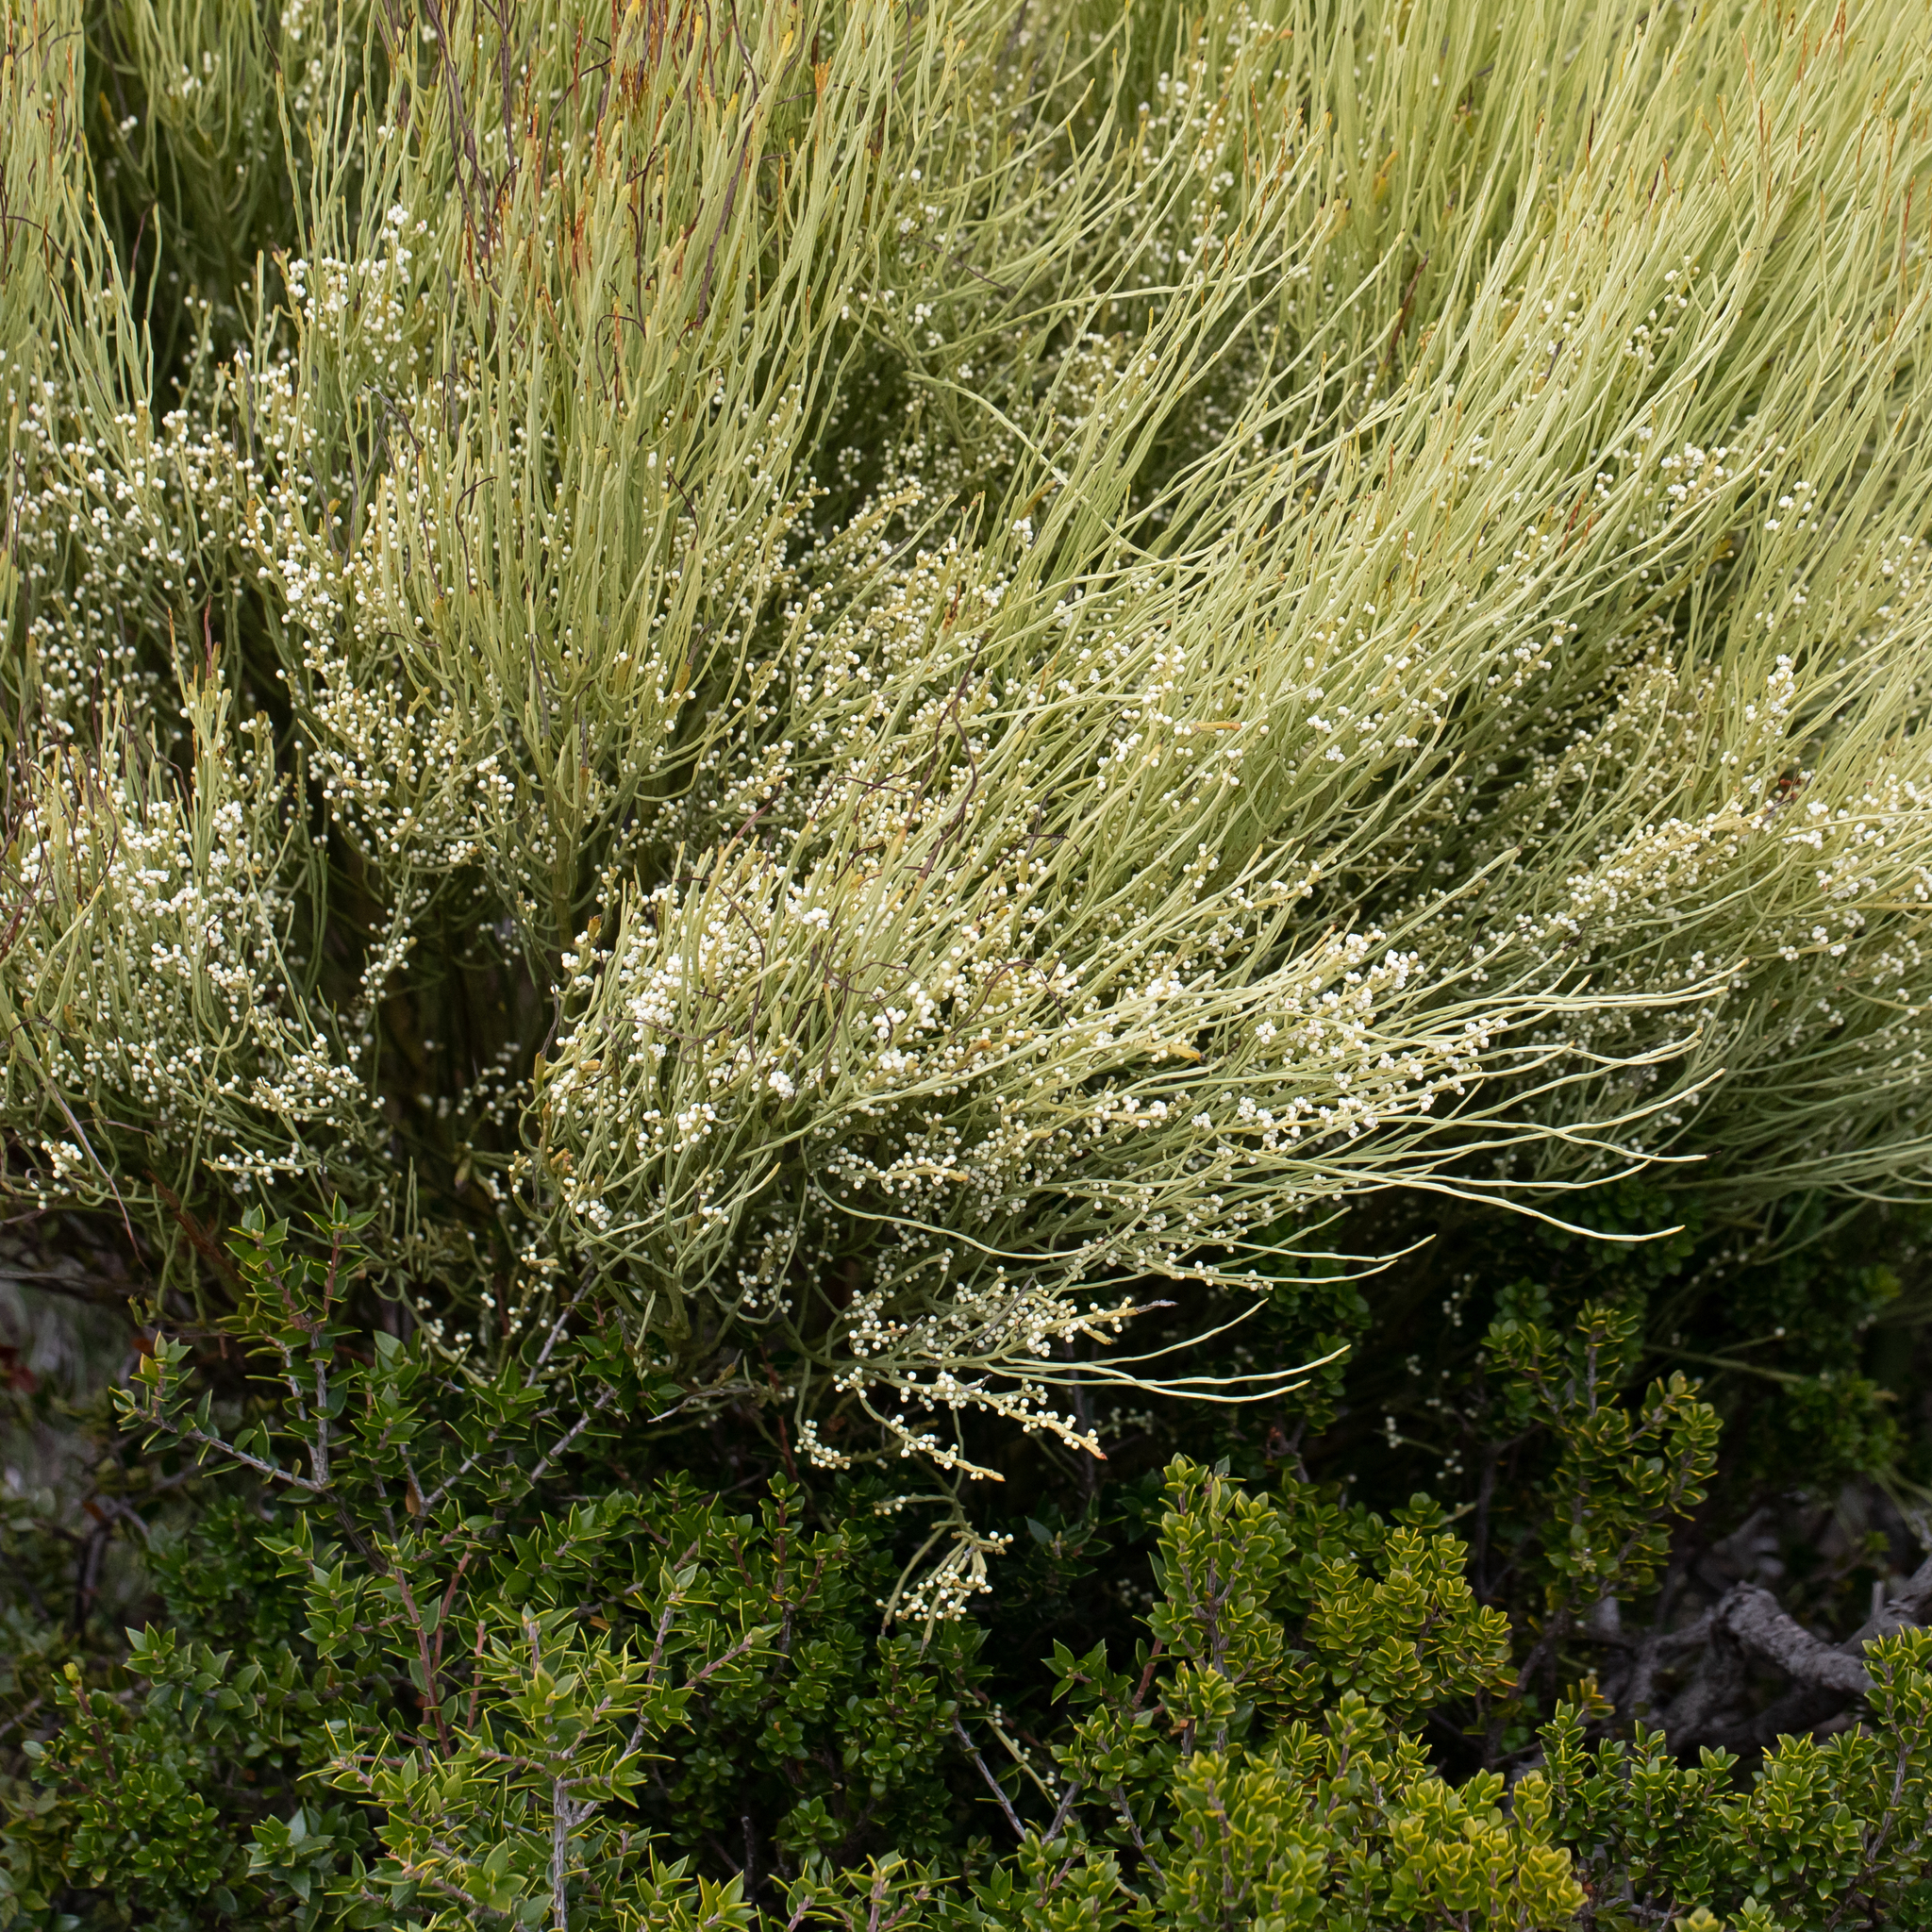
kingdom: Plantae
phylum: Tracheophyta
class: Magnoliopsida
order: Santalales
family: Amphorogynaceae
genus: Choretrum
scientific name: Choretrum glomeratum
